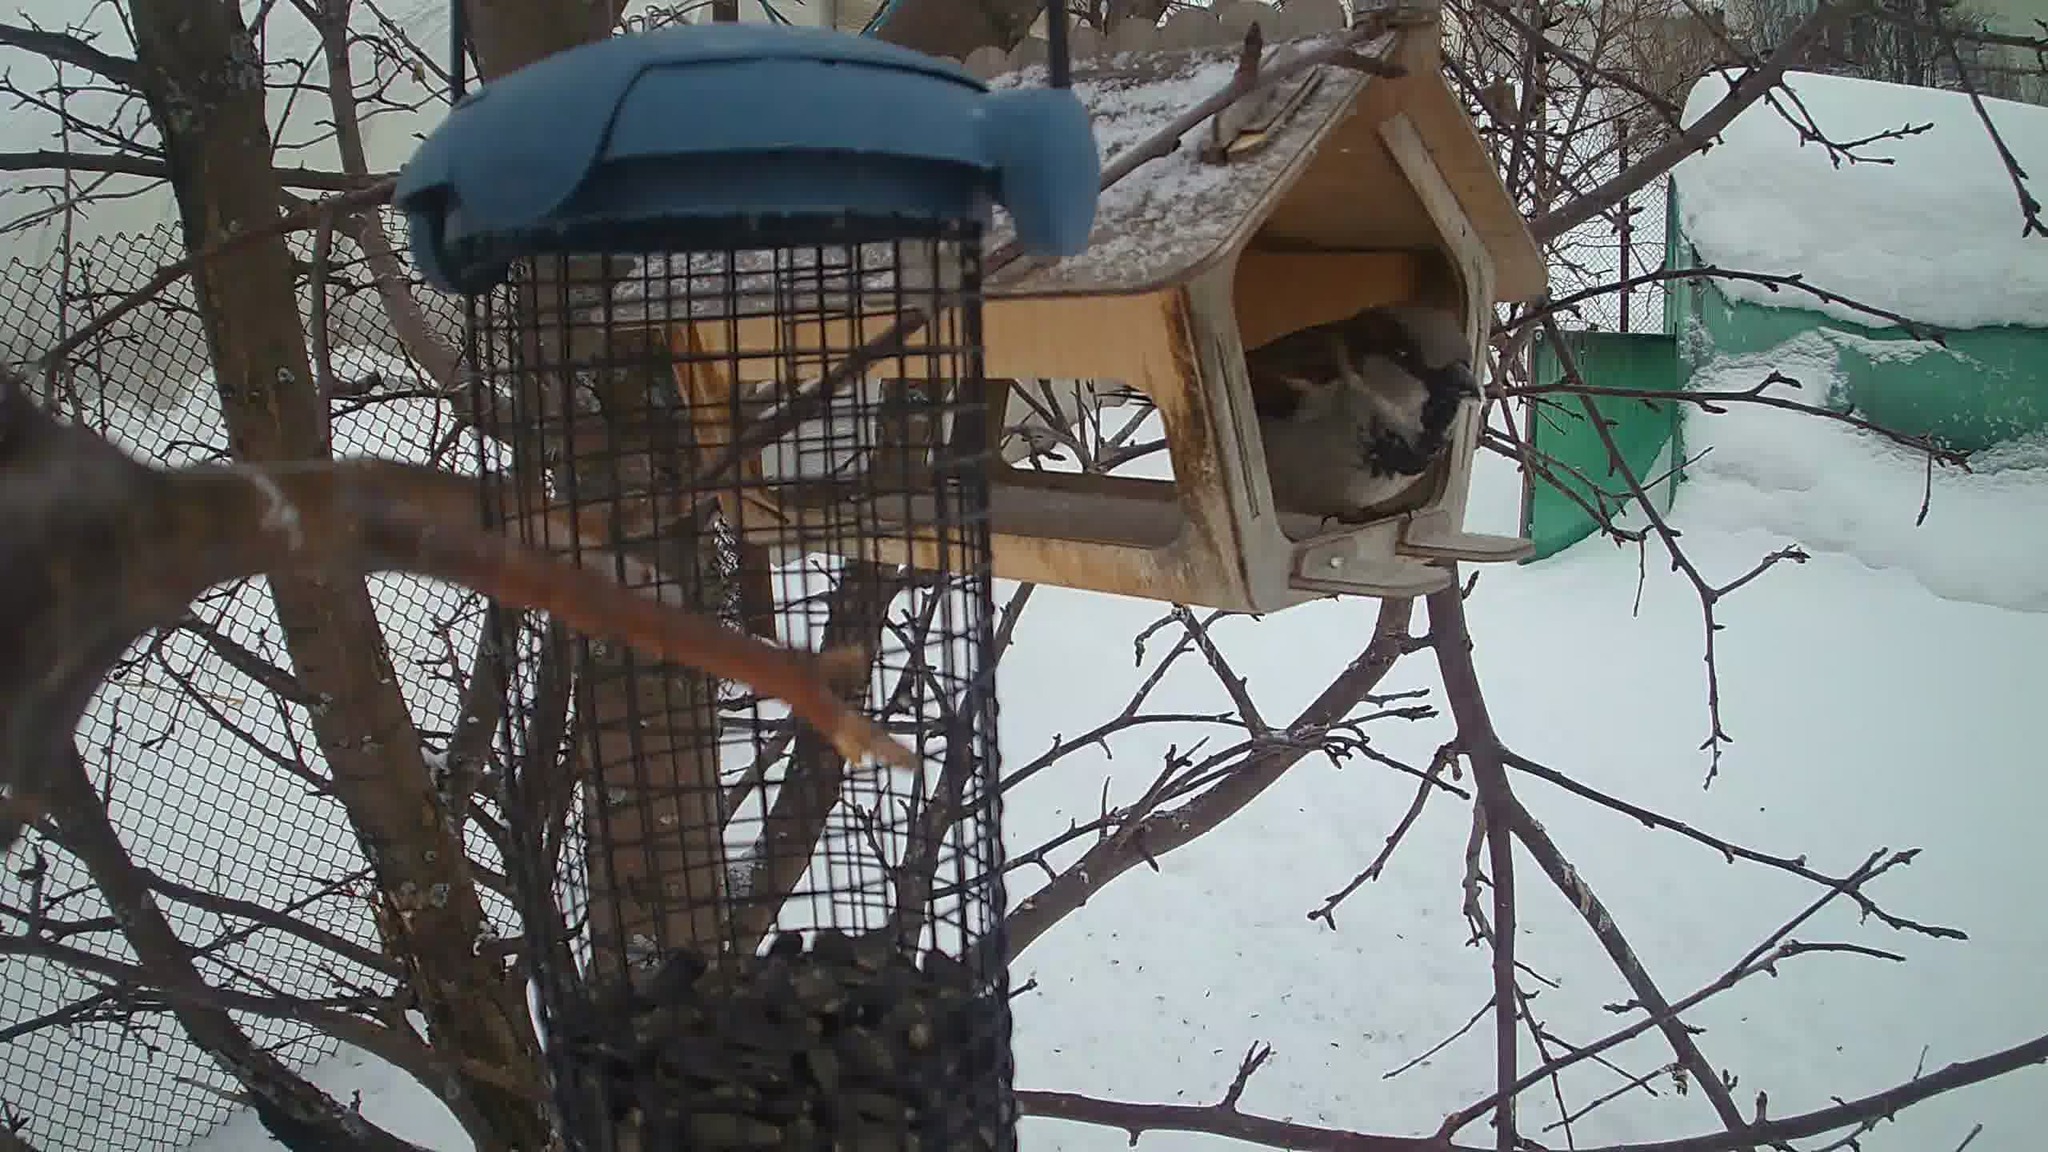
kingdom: Animalia
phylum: Chordata
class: Aves
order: Passeriformes
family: Passeridae
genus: Passer
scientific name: Passer domesticus
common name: House sparrow
